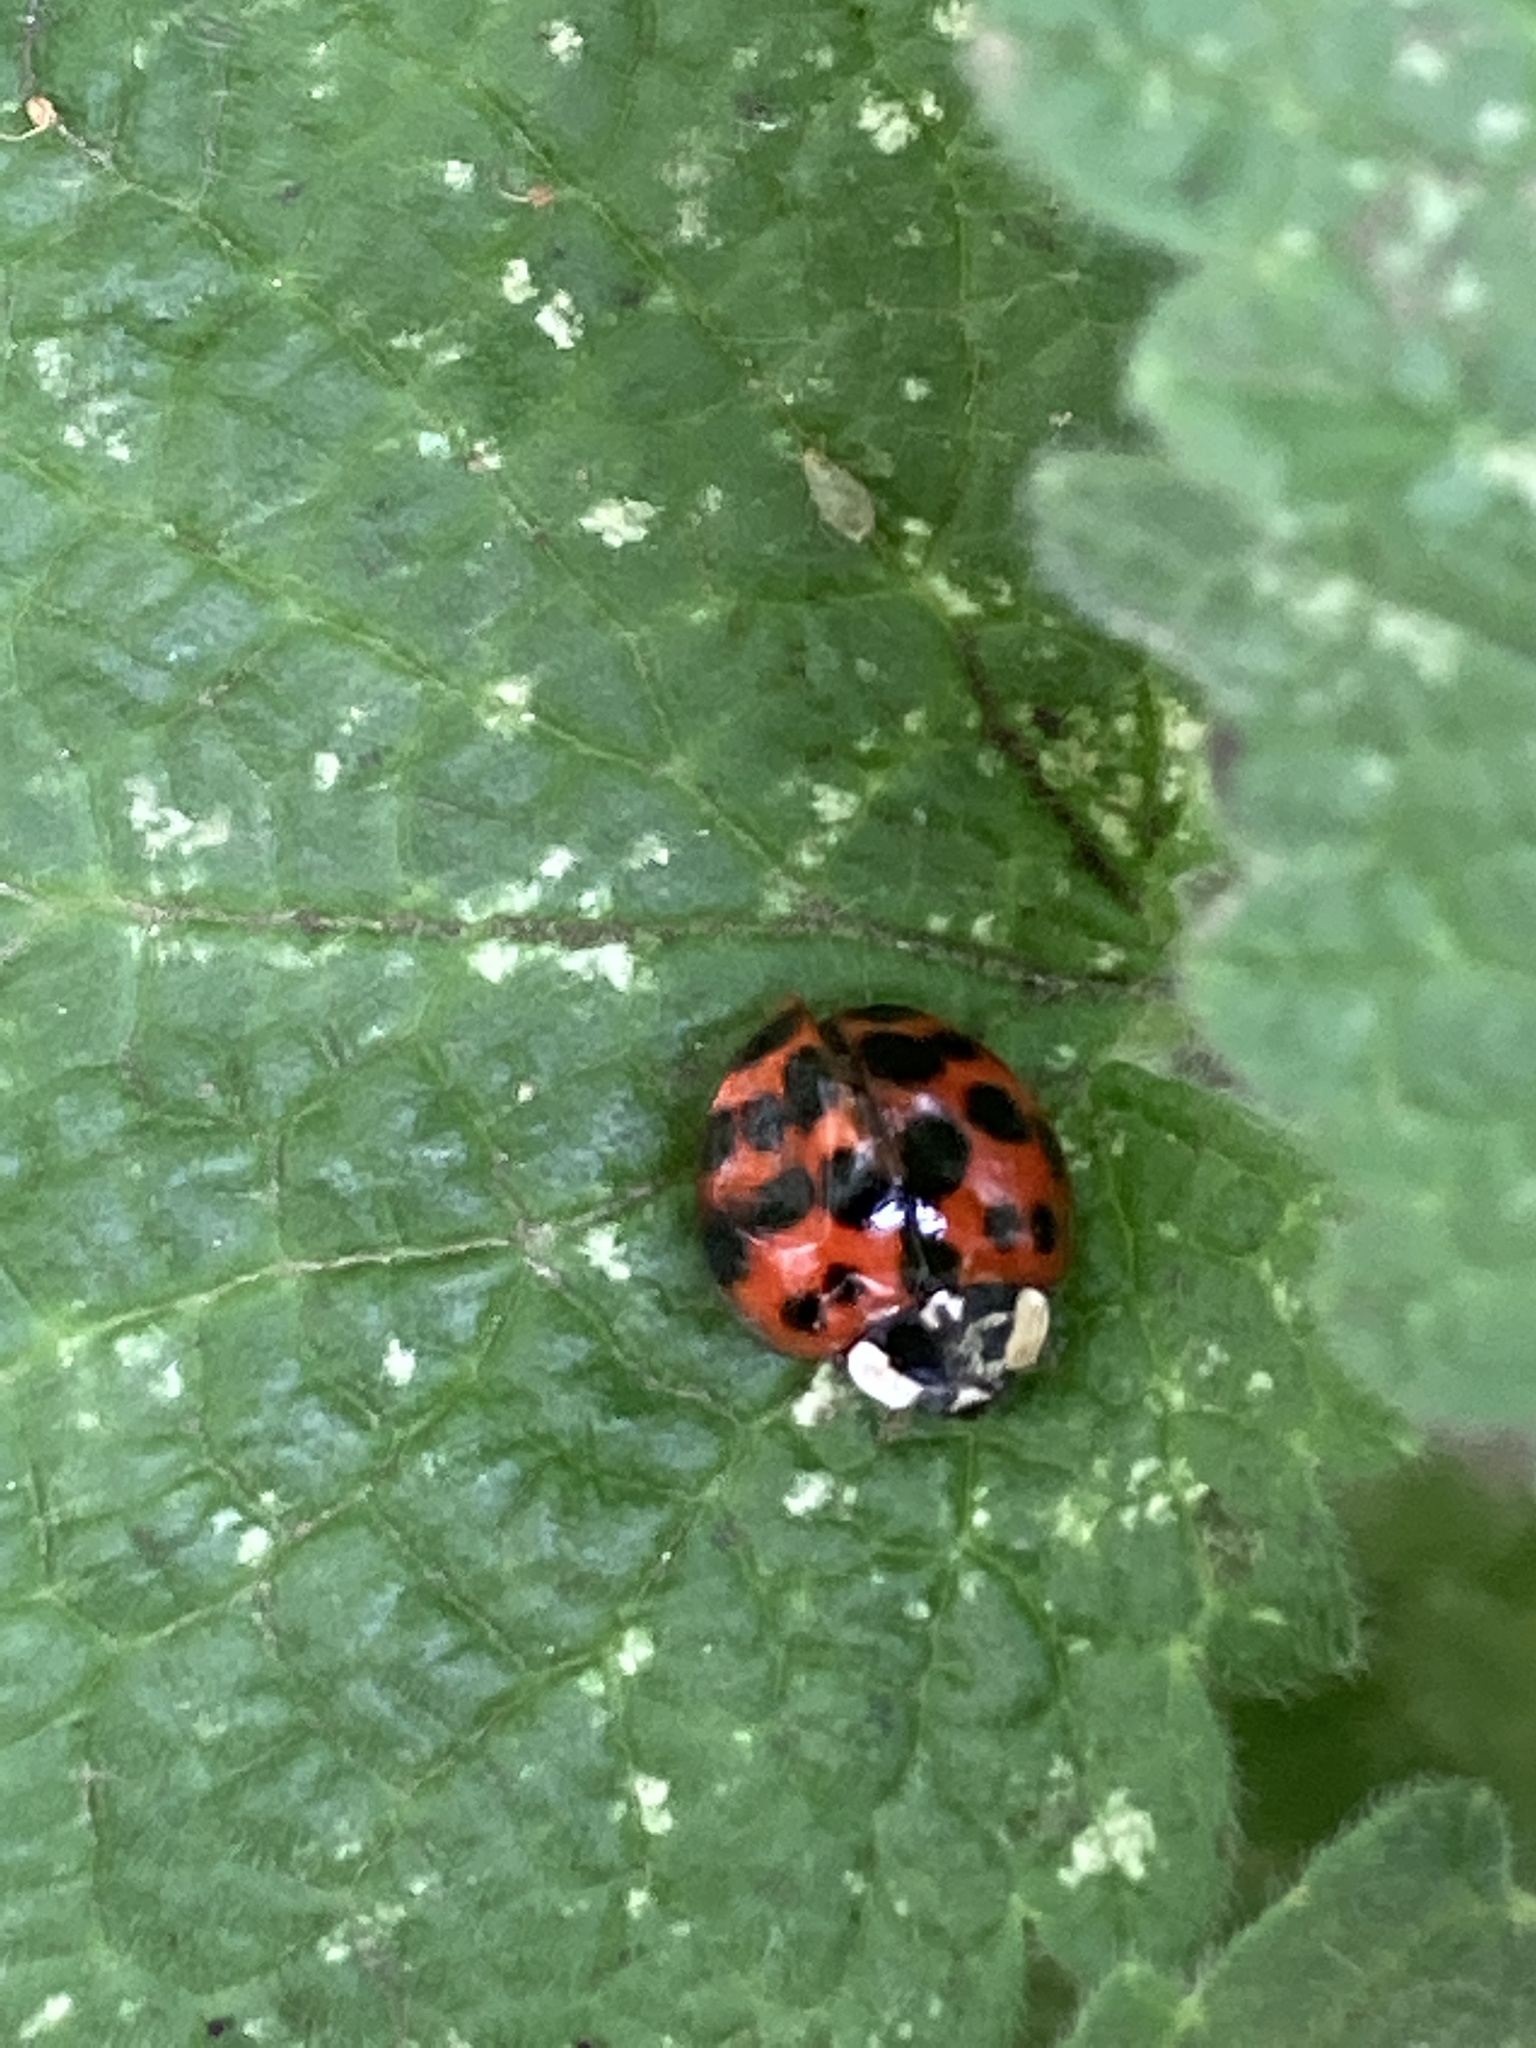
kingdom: Animalia
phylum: Arthropoda
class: Insecta
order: Coleoptera
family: Coccinellidae
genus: Harmonia
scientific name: Harmonia axyridis
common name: Harlequin ladybird
